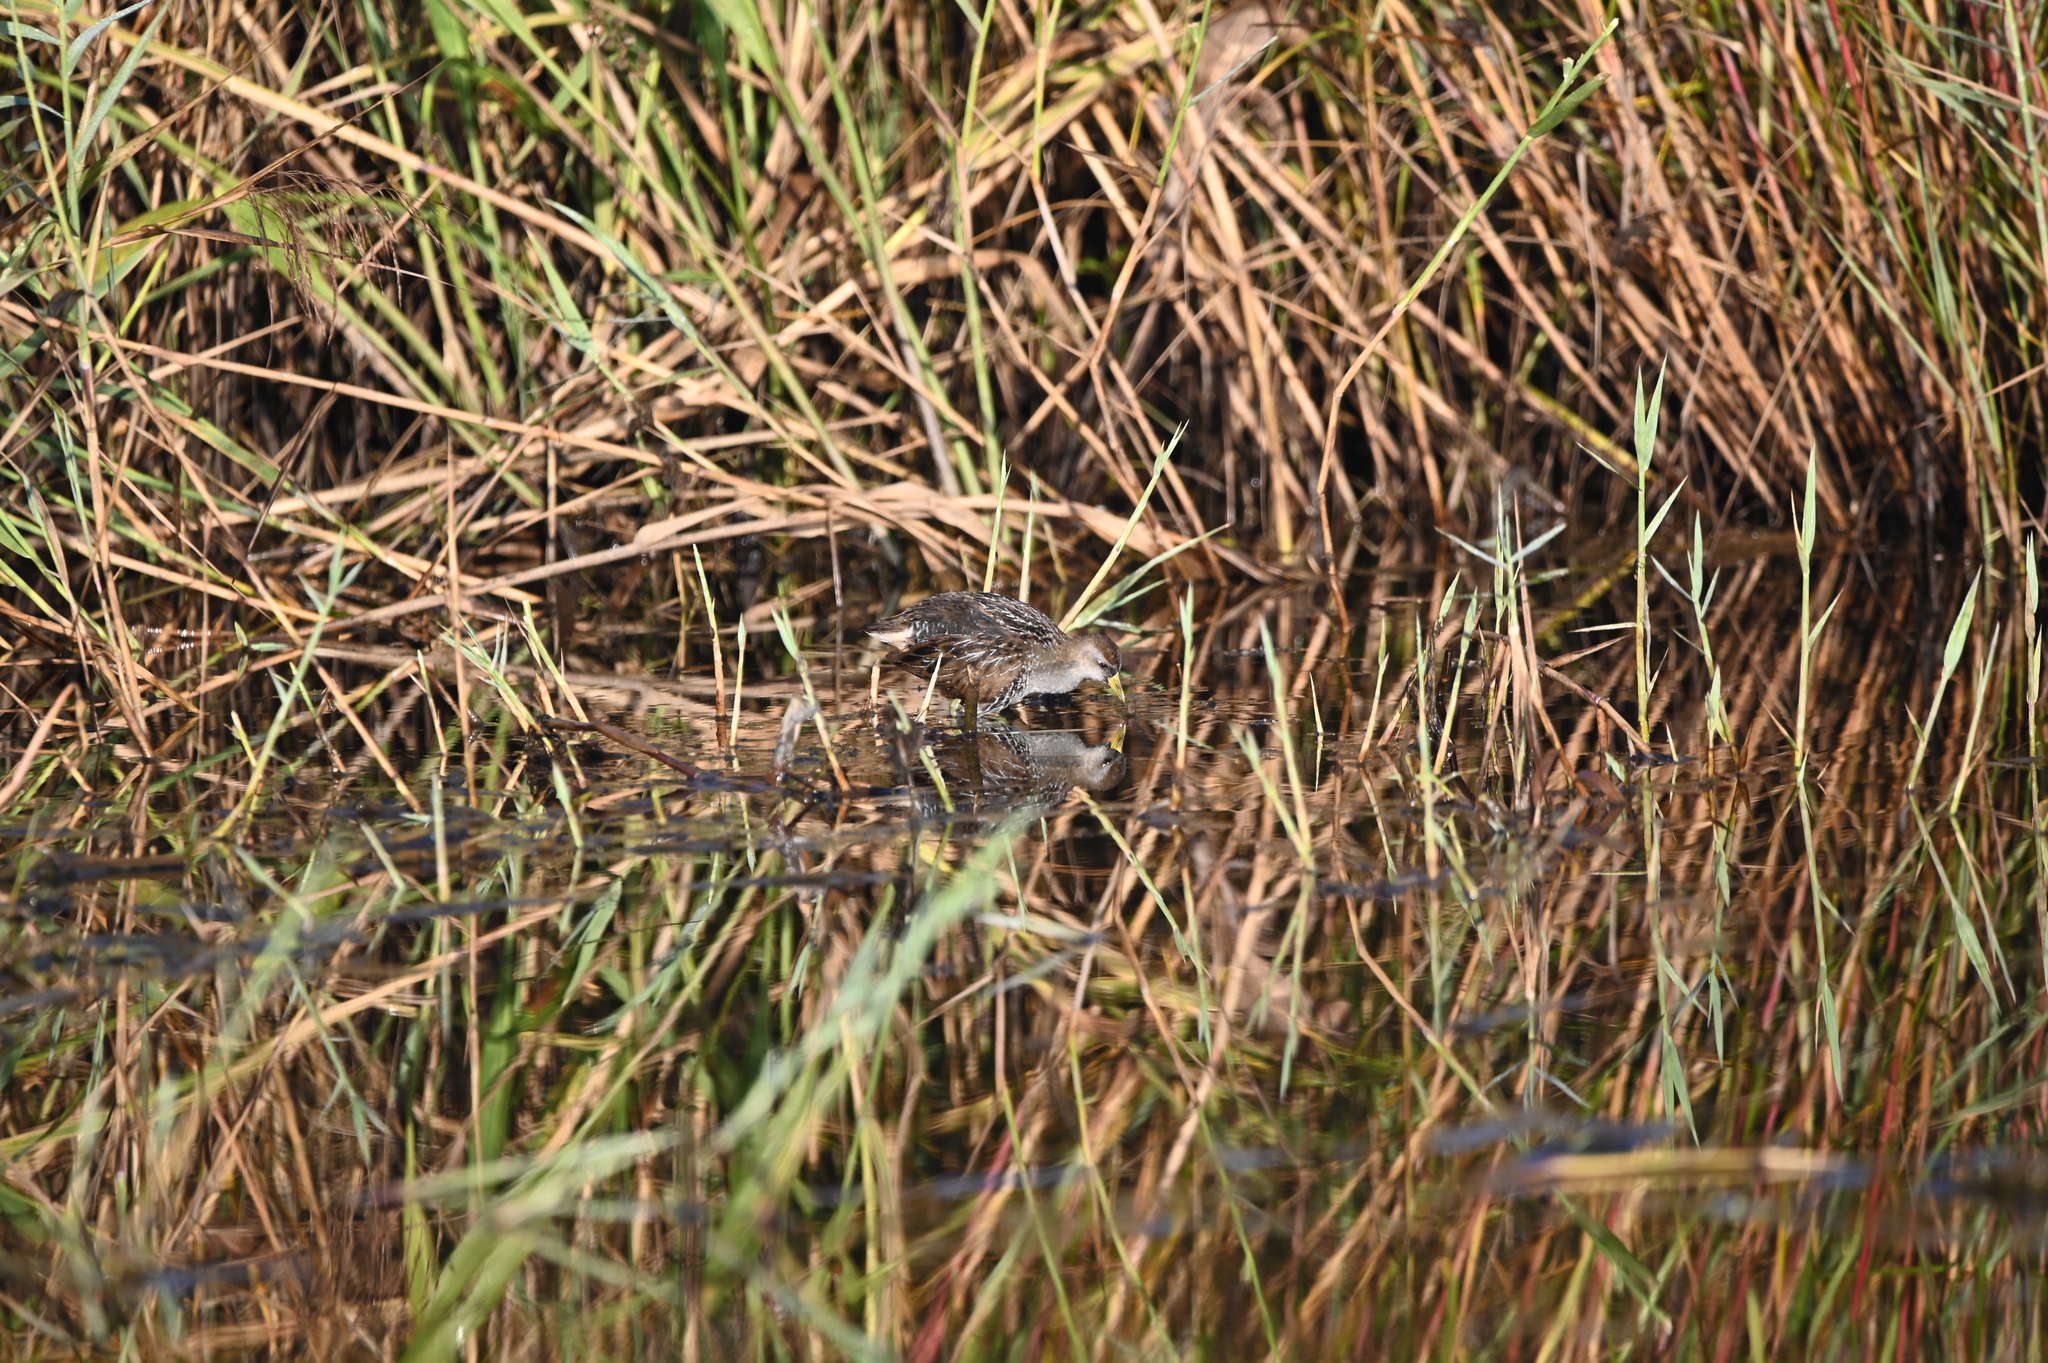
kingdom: Animalia
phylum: Chordata
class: Aves
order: Gruiformes
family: Rallidae
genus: Porzana
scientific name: Porzana carolina
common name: Sora
